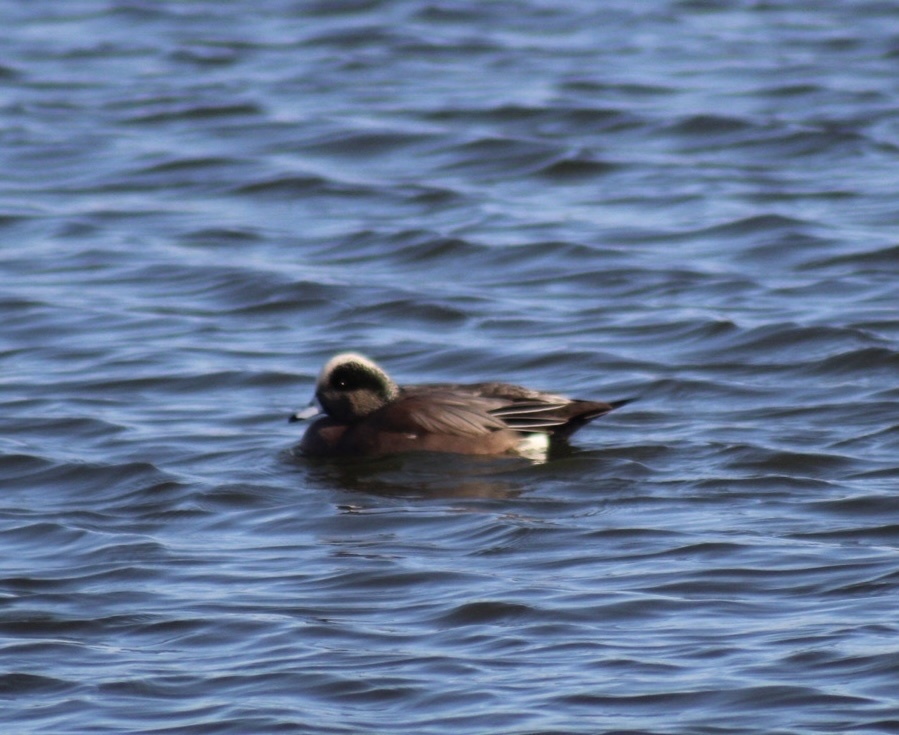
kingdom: Animalia
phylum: Chordata
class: Aves
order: Anseriformes
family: Anatidae
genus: Mareca
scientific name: Mareca americana
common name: American wigeon
